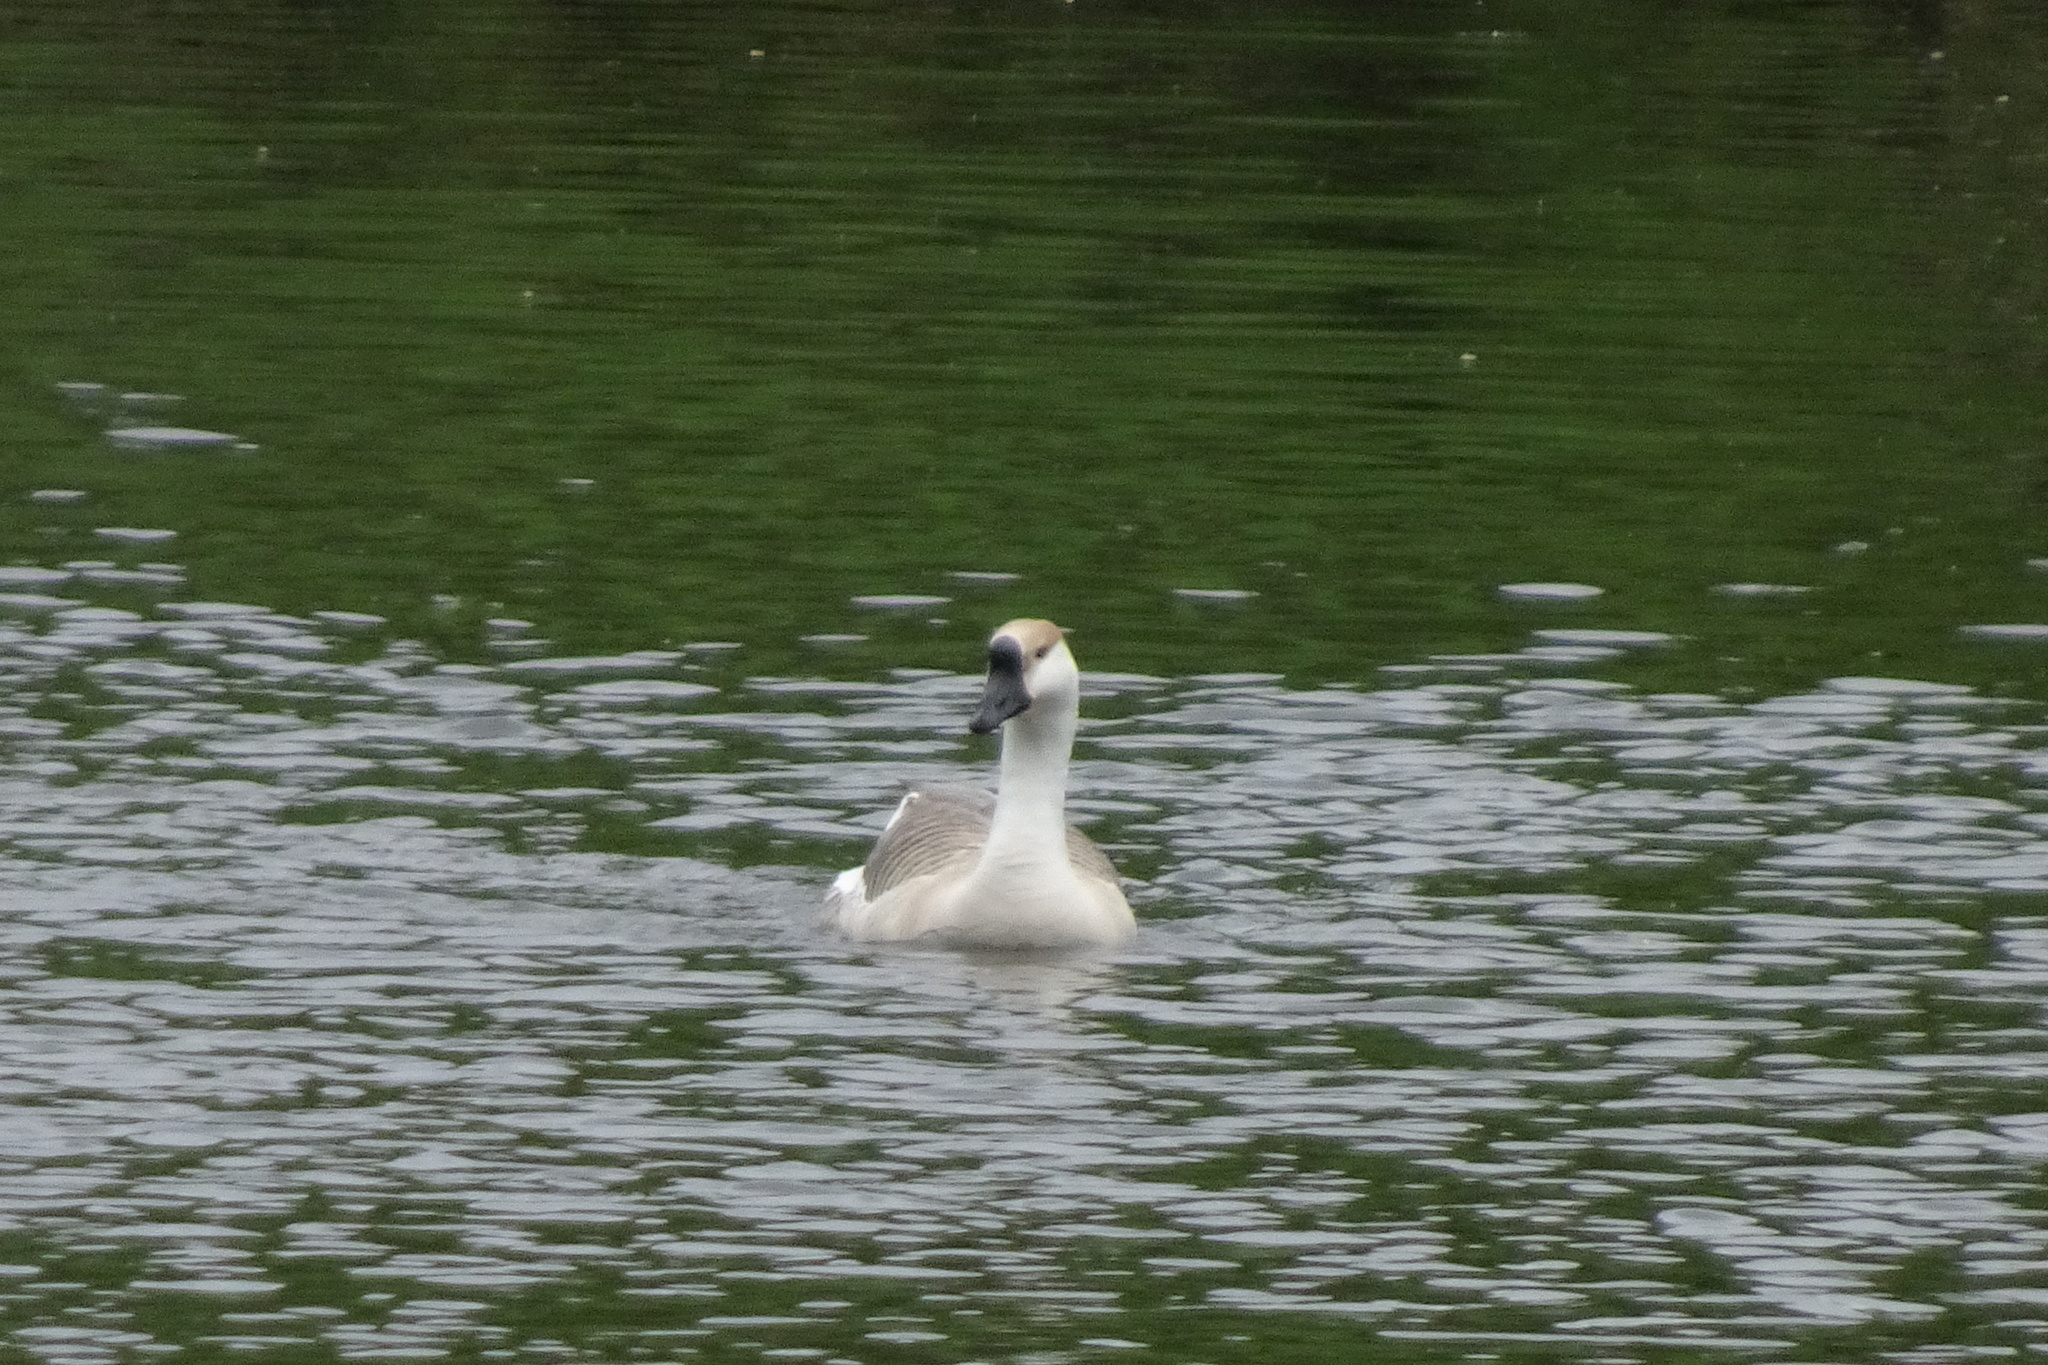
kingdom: Animalia
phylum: Chordata
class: Aves
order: Anseriformes
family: Anatidae
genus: Anser
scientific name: Anser cygnoides
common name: Swan goose
